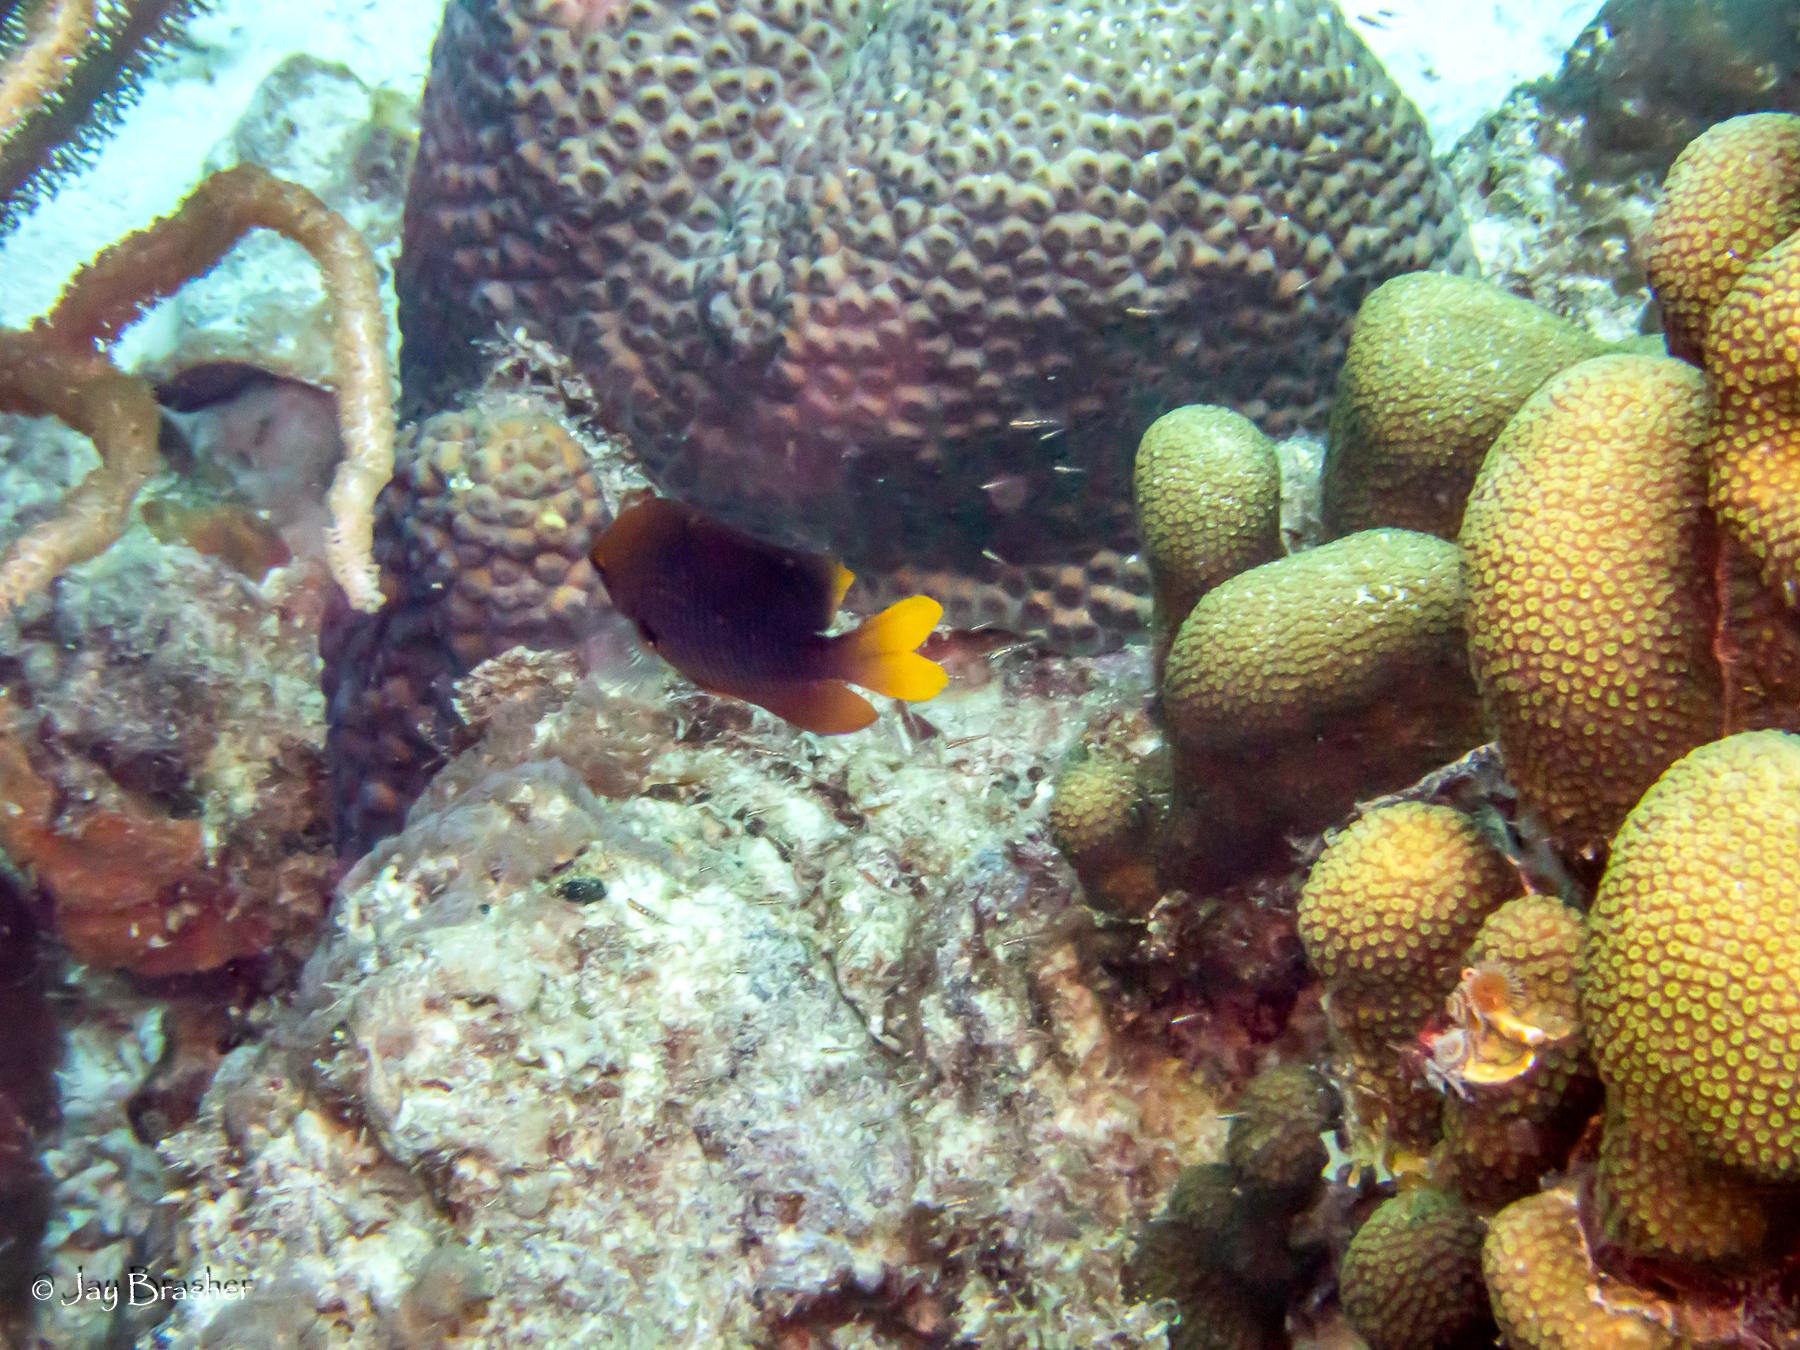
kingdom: Animalia
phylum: Cnidaria
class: Anthozoa
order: Scleractinia
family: Merulinidae
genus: Orbicella
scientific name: Orbicella annularis
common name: Boulder star coral
